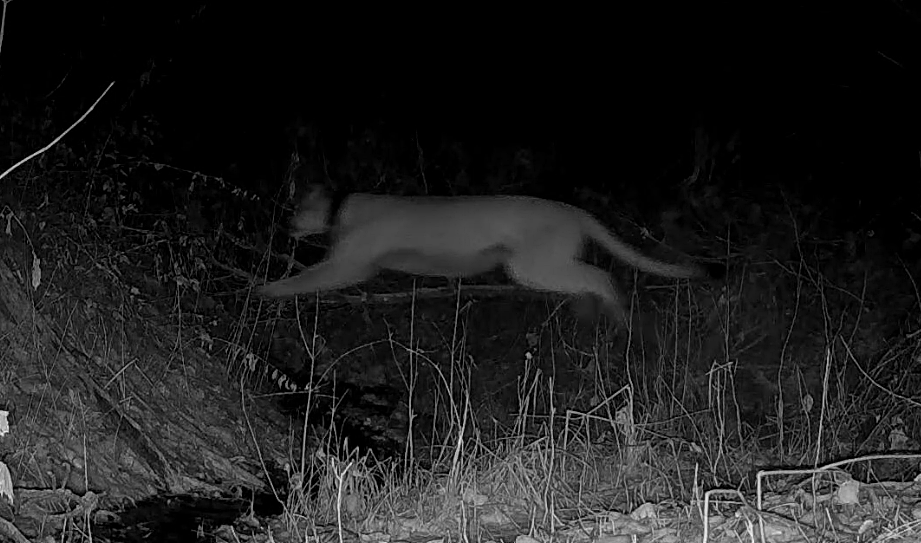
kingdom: Animalia
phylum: Chordata
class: Mammalia
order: Carnivora
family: Felidae
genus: Puma
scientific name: Puma concolor
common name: Puma
